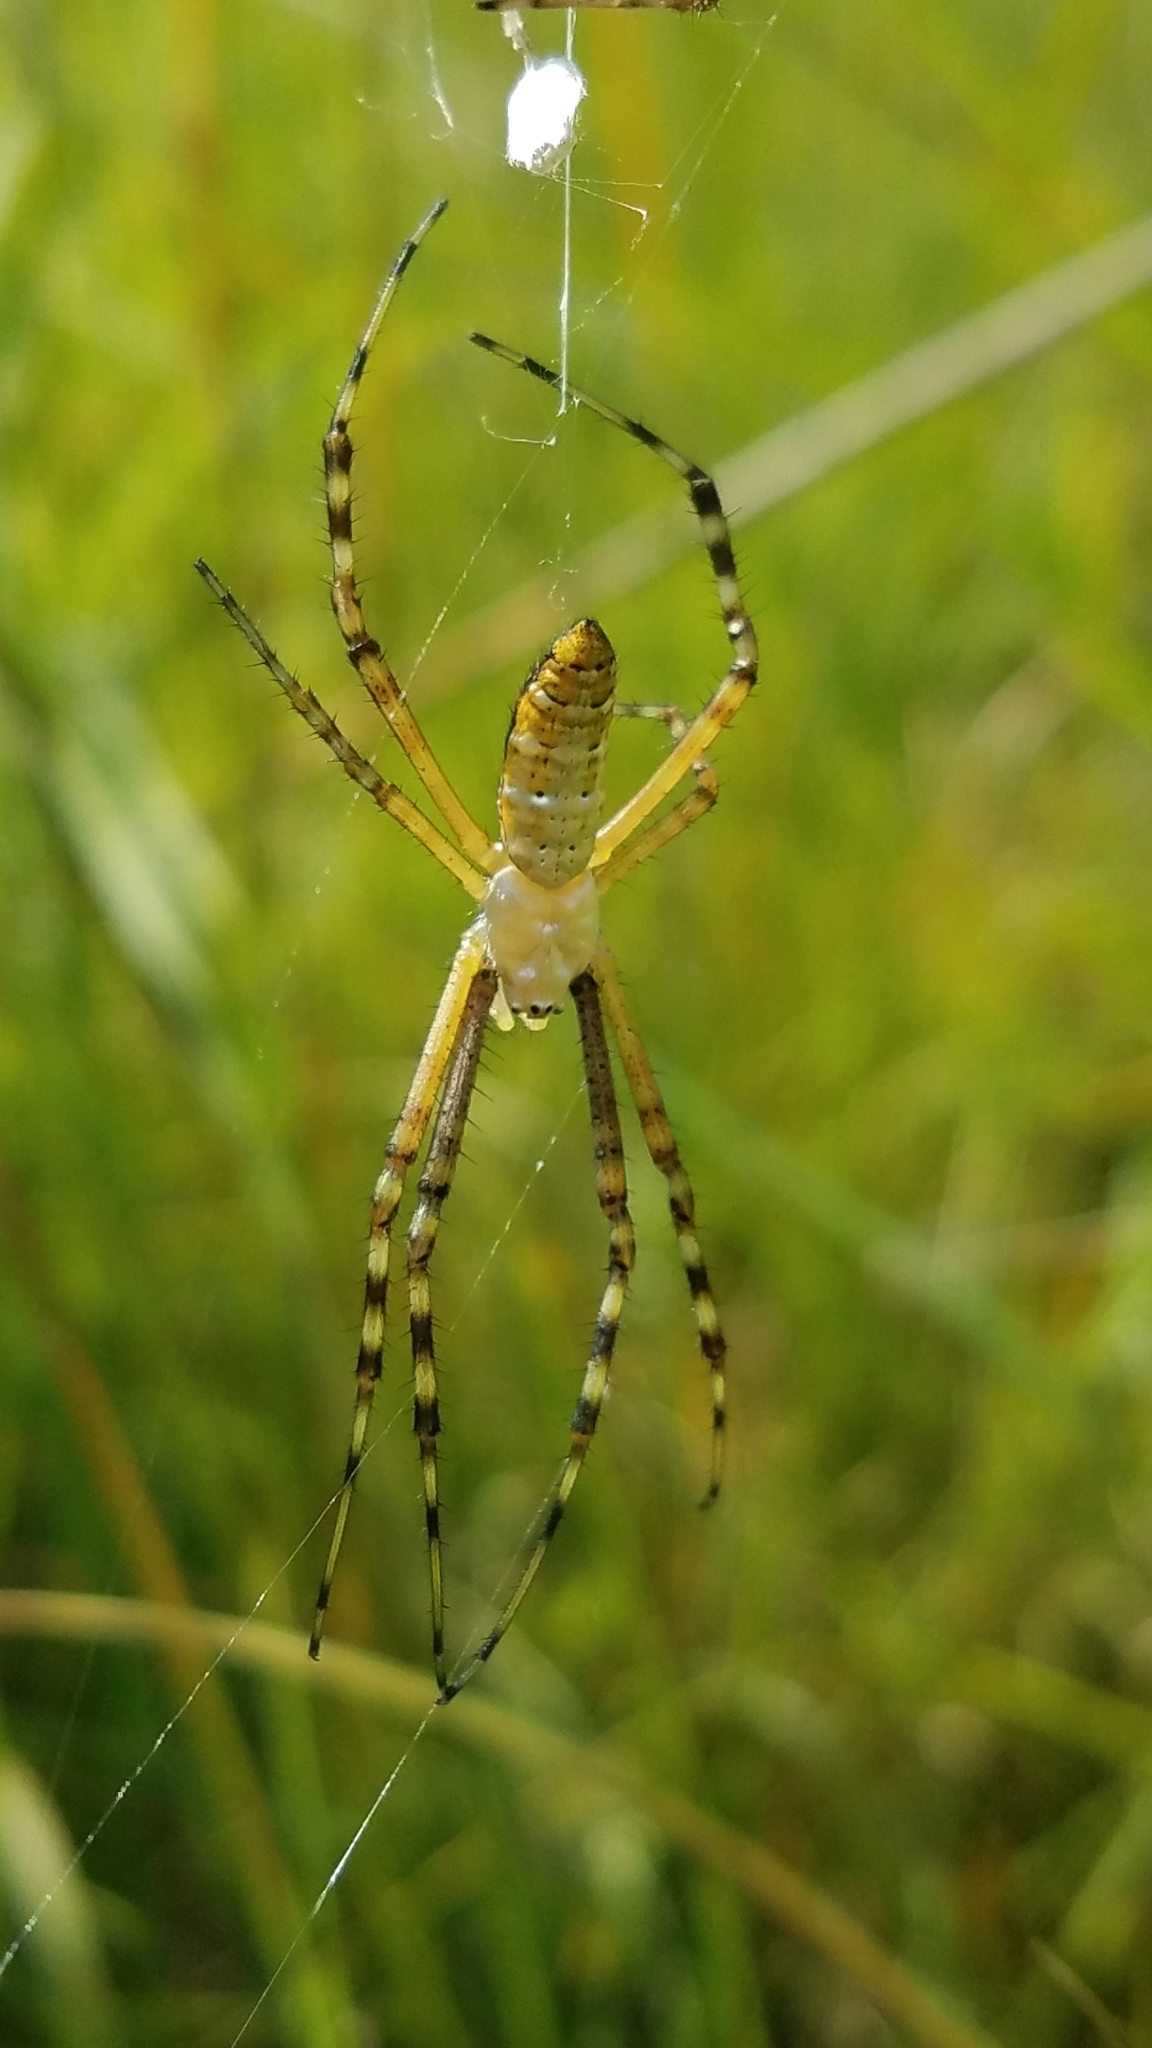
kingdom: Animalia
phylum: Arthropoda
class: Arachnida
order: Araneae
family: Araneidae
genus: Argiope
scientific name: Argiope trifasciata
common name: Banded garden spider
